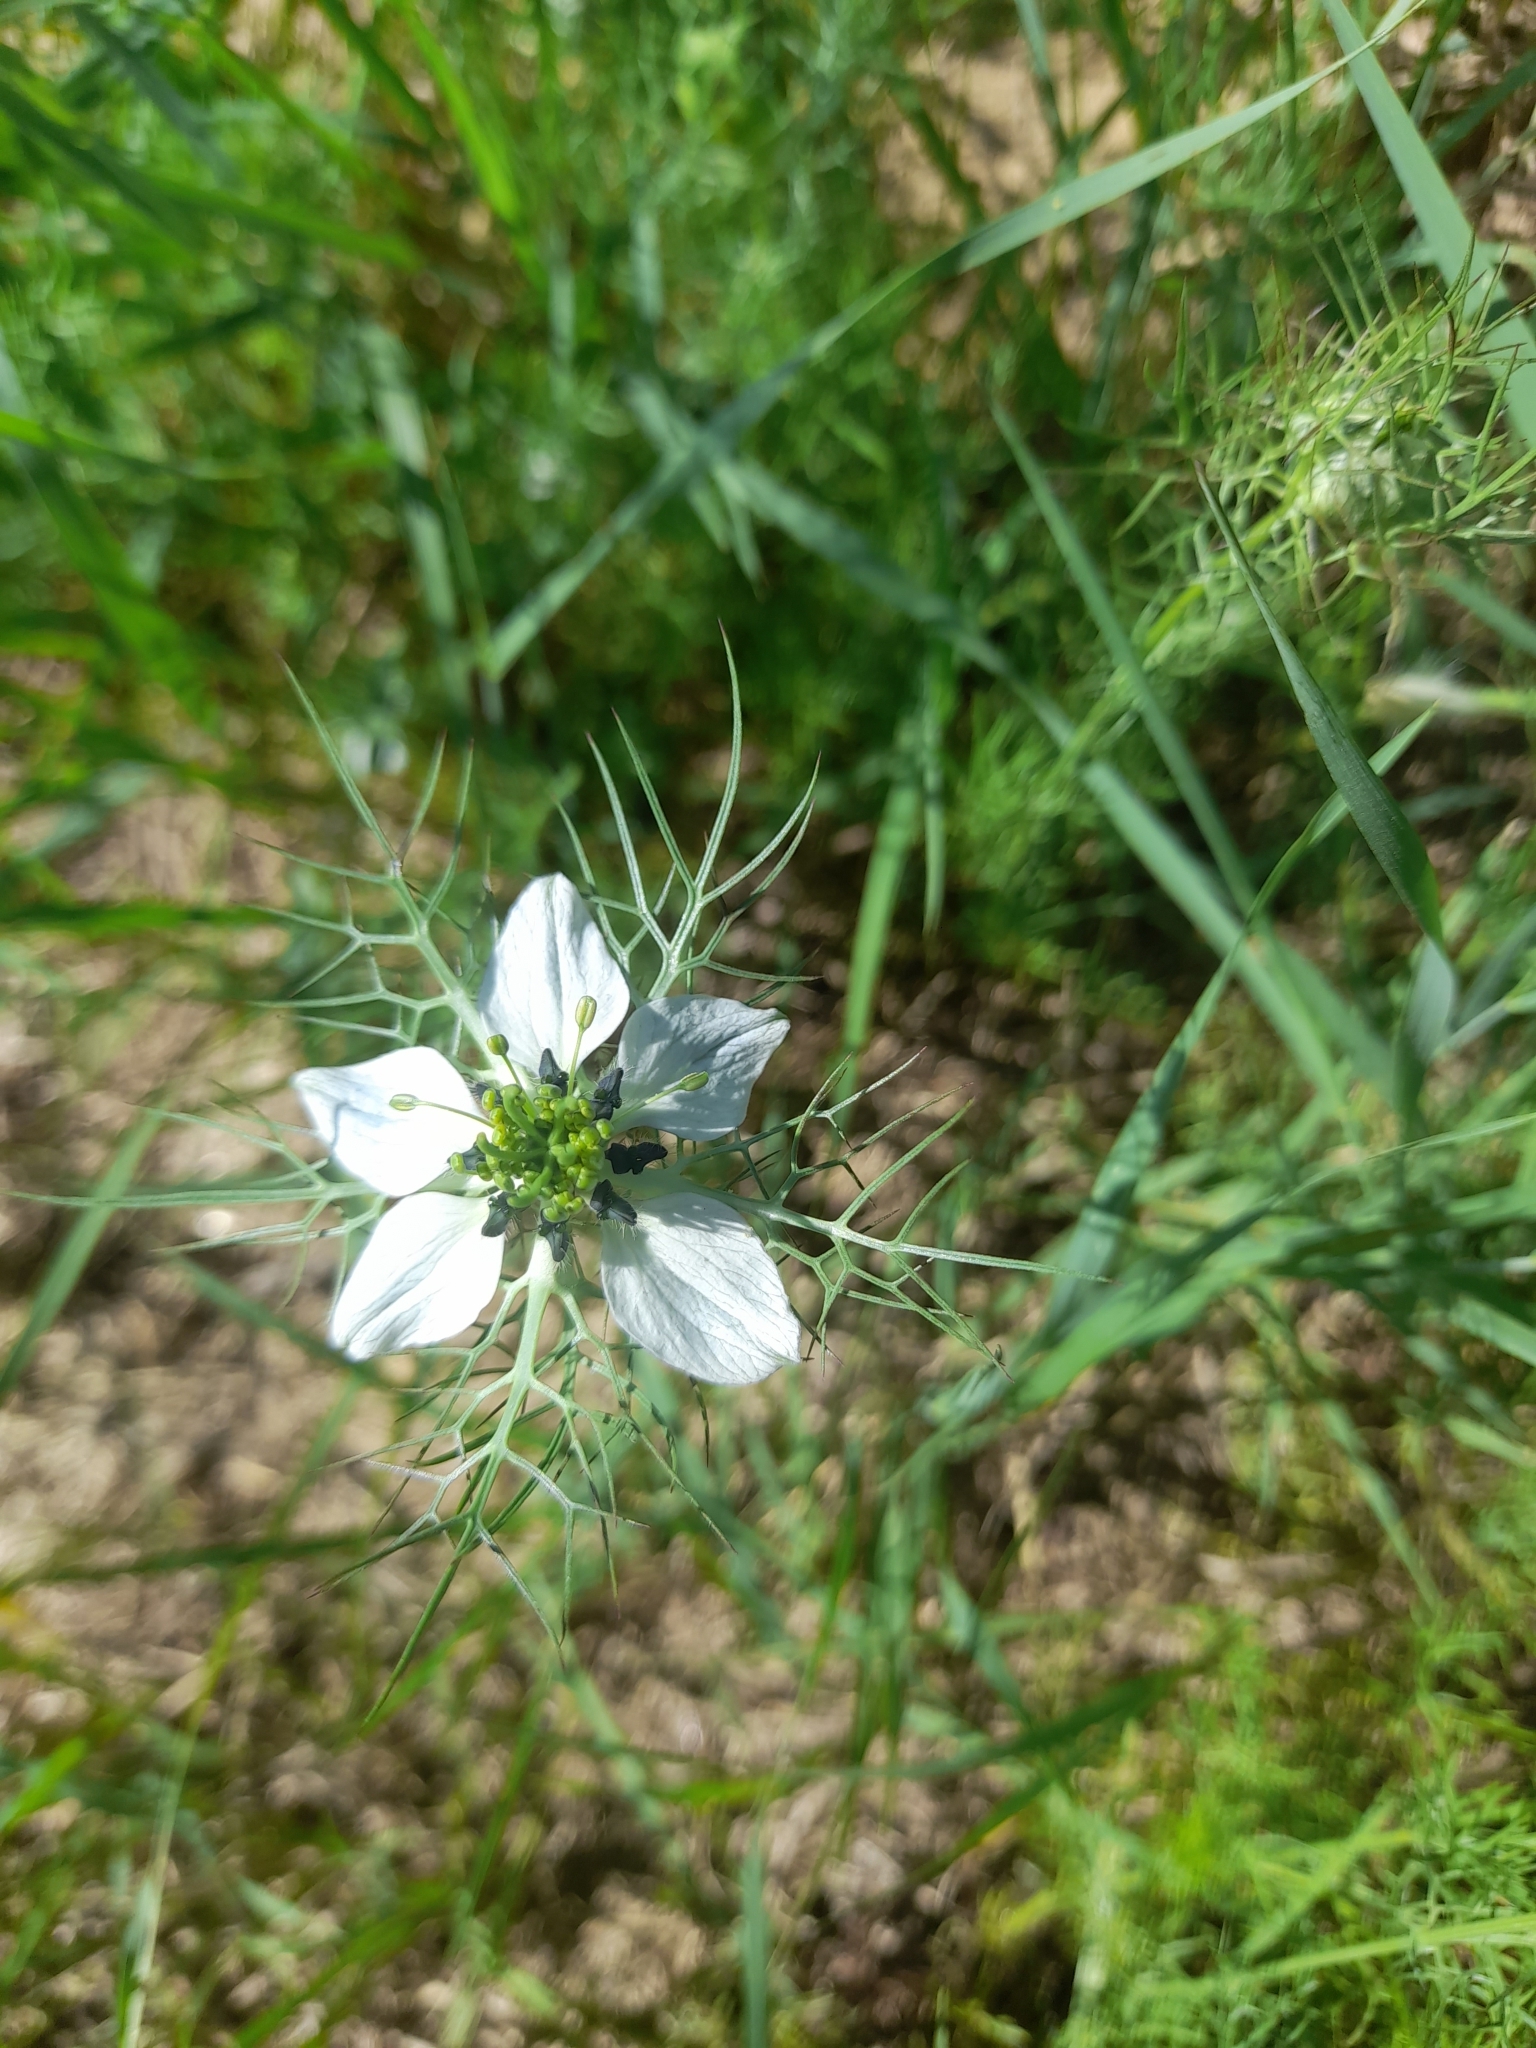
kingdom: Plantae
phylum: Tracheophyta
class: Magnoliopsida
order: Ranunculales
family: Ranunculaceae
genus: Nigella
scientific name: Nigella damascena
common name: Love-in-a-mist
